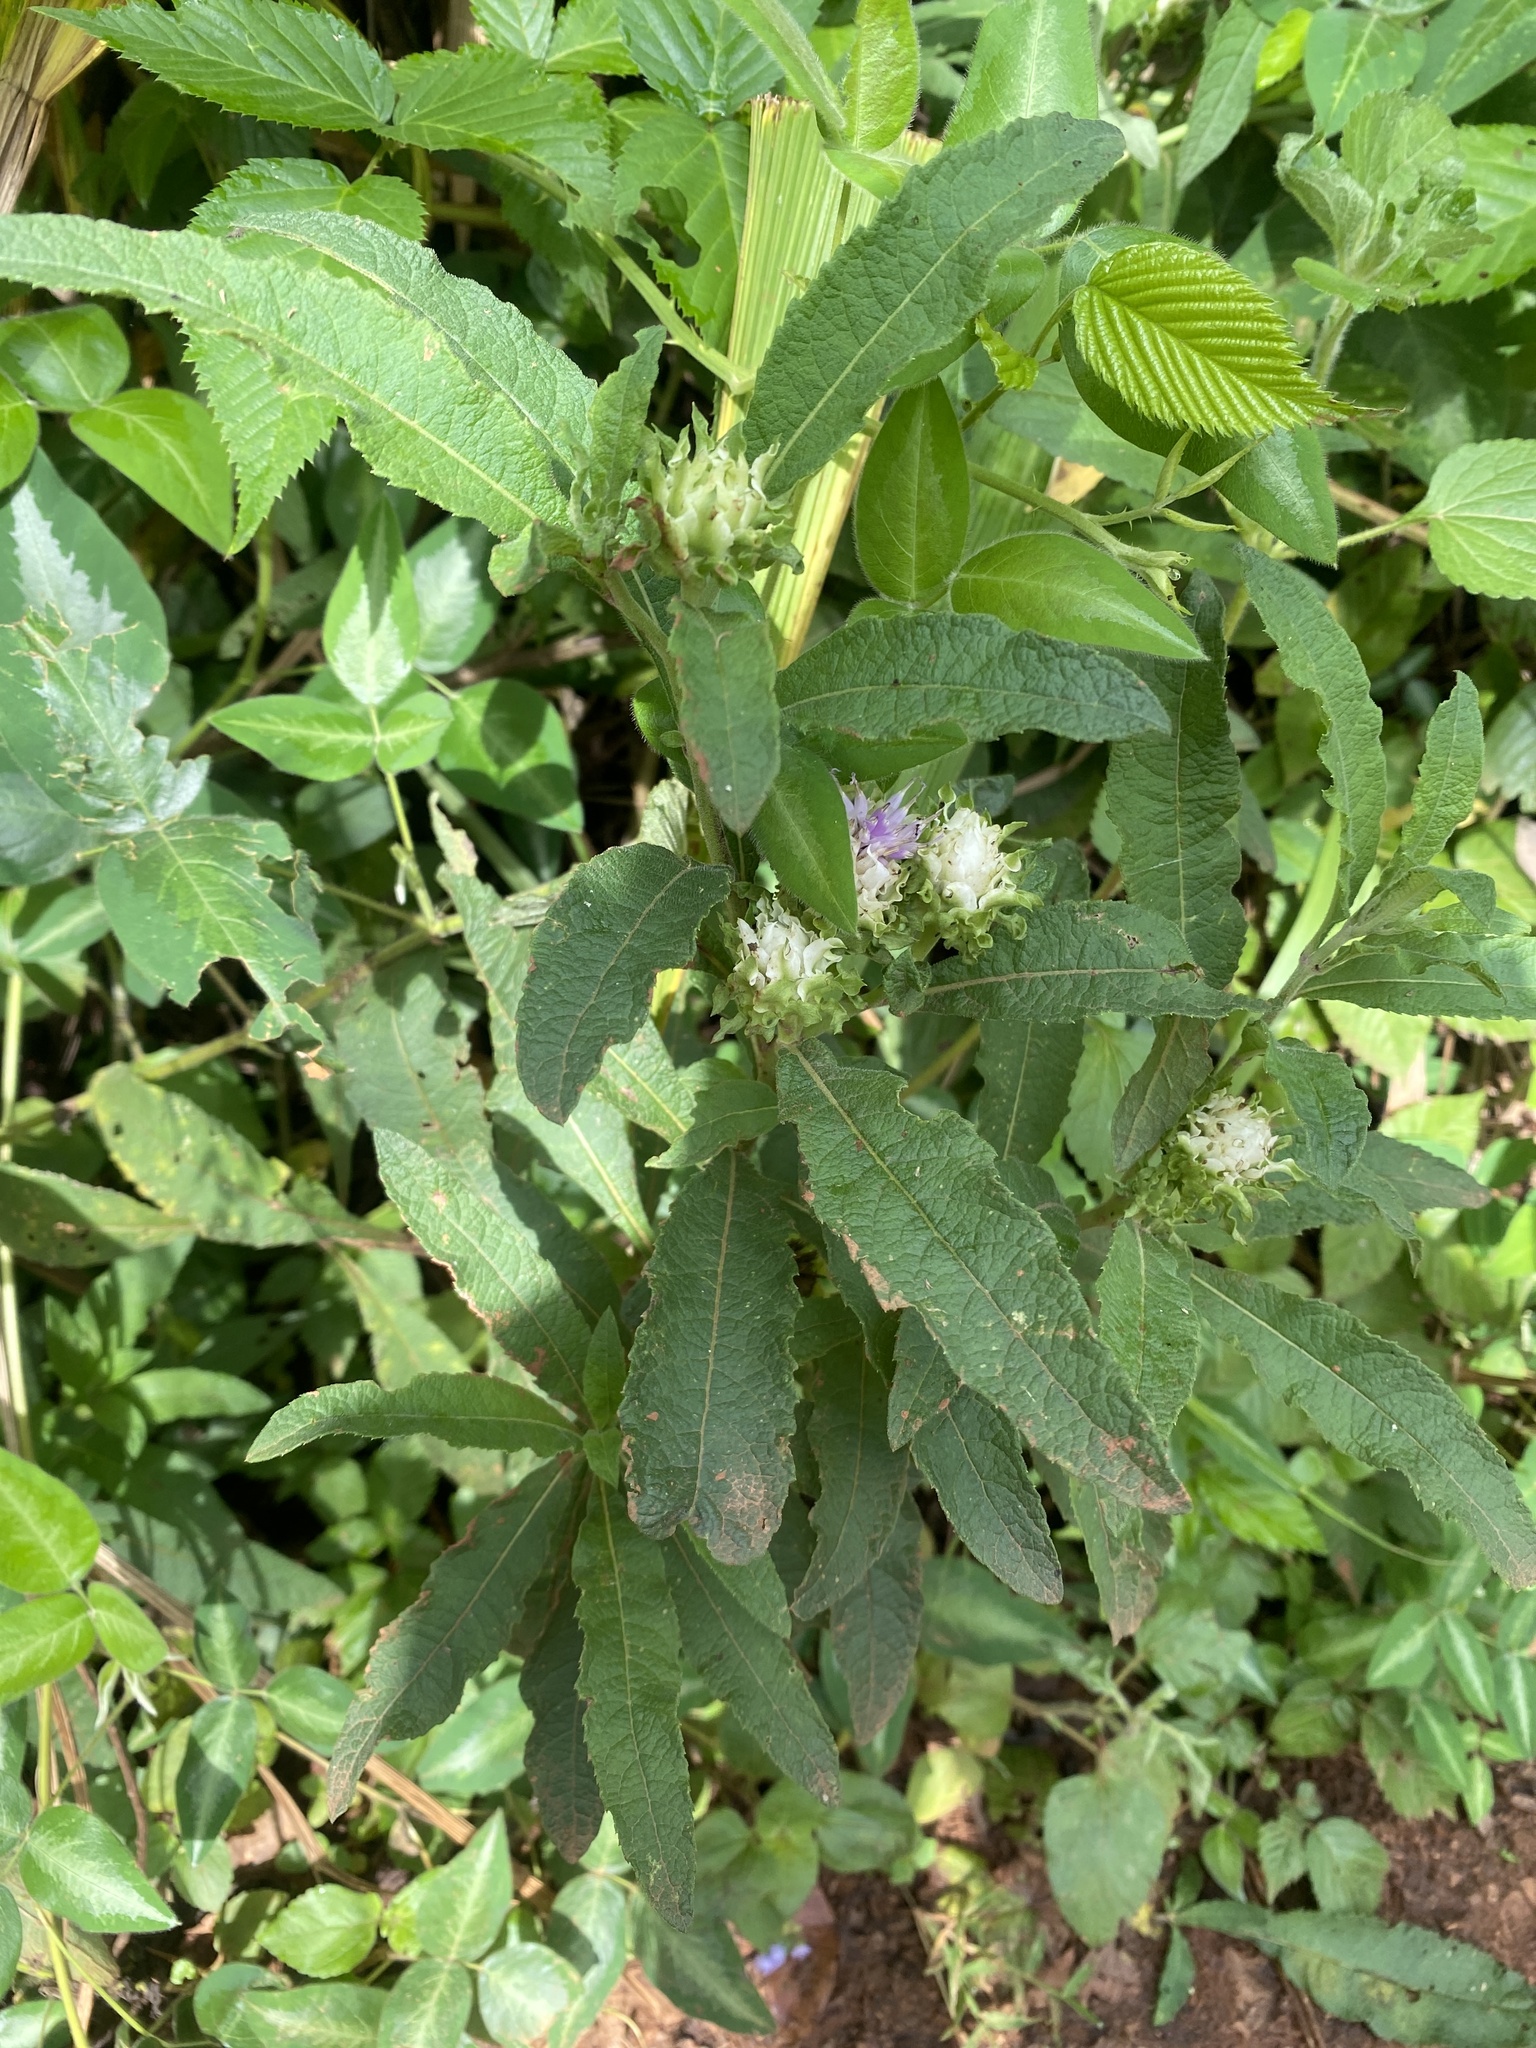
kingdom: Plantae
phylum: Tracheophyta
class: Magnoliopsida
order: Asterales
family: Asteraceae
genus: Baccharoides
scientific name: Baccharoides adoensis
